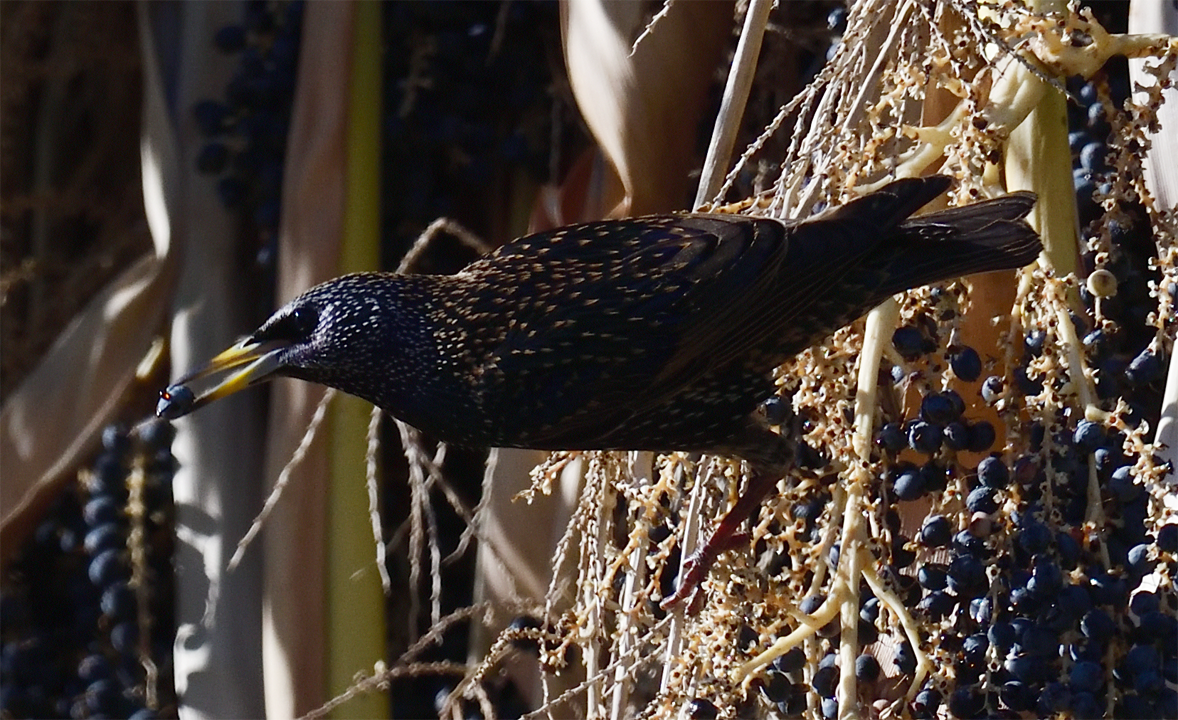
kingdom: Animalia
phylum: Chordata
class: Aves
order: Passeriformes
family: Sturnidae
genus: Sturnus
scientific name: Sturnus vulgaris
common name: Common starling
